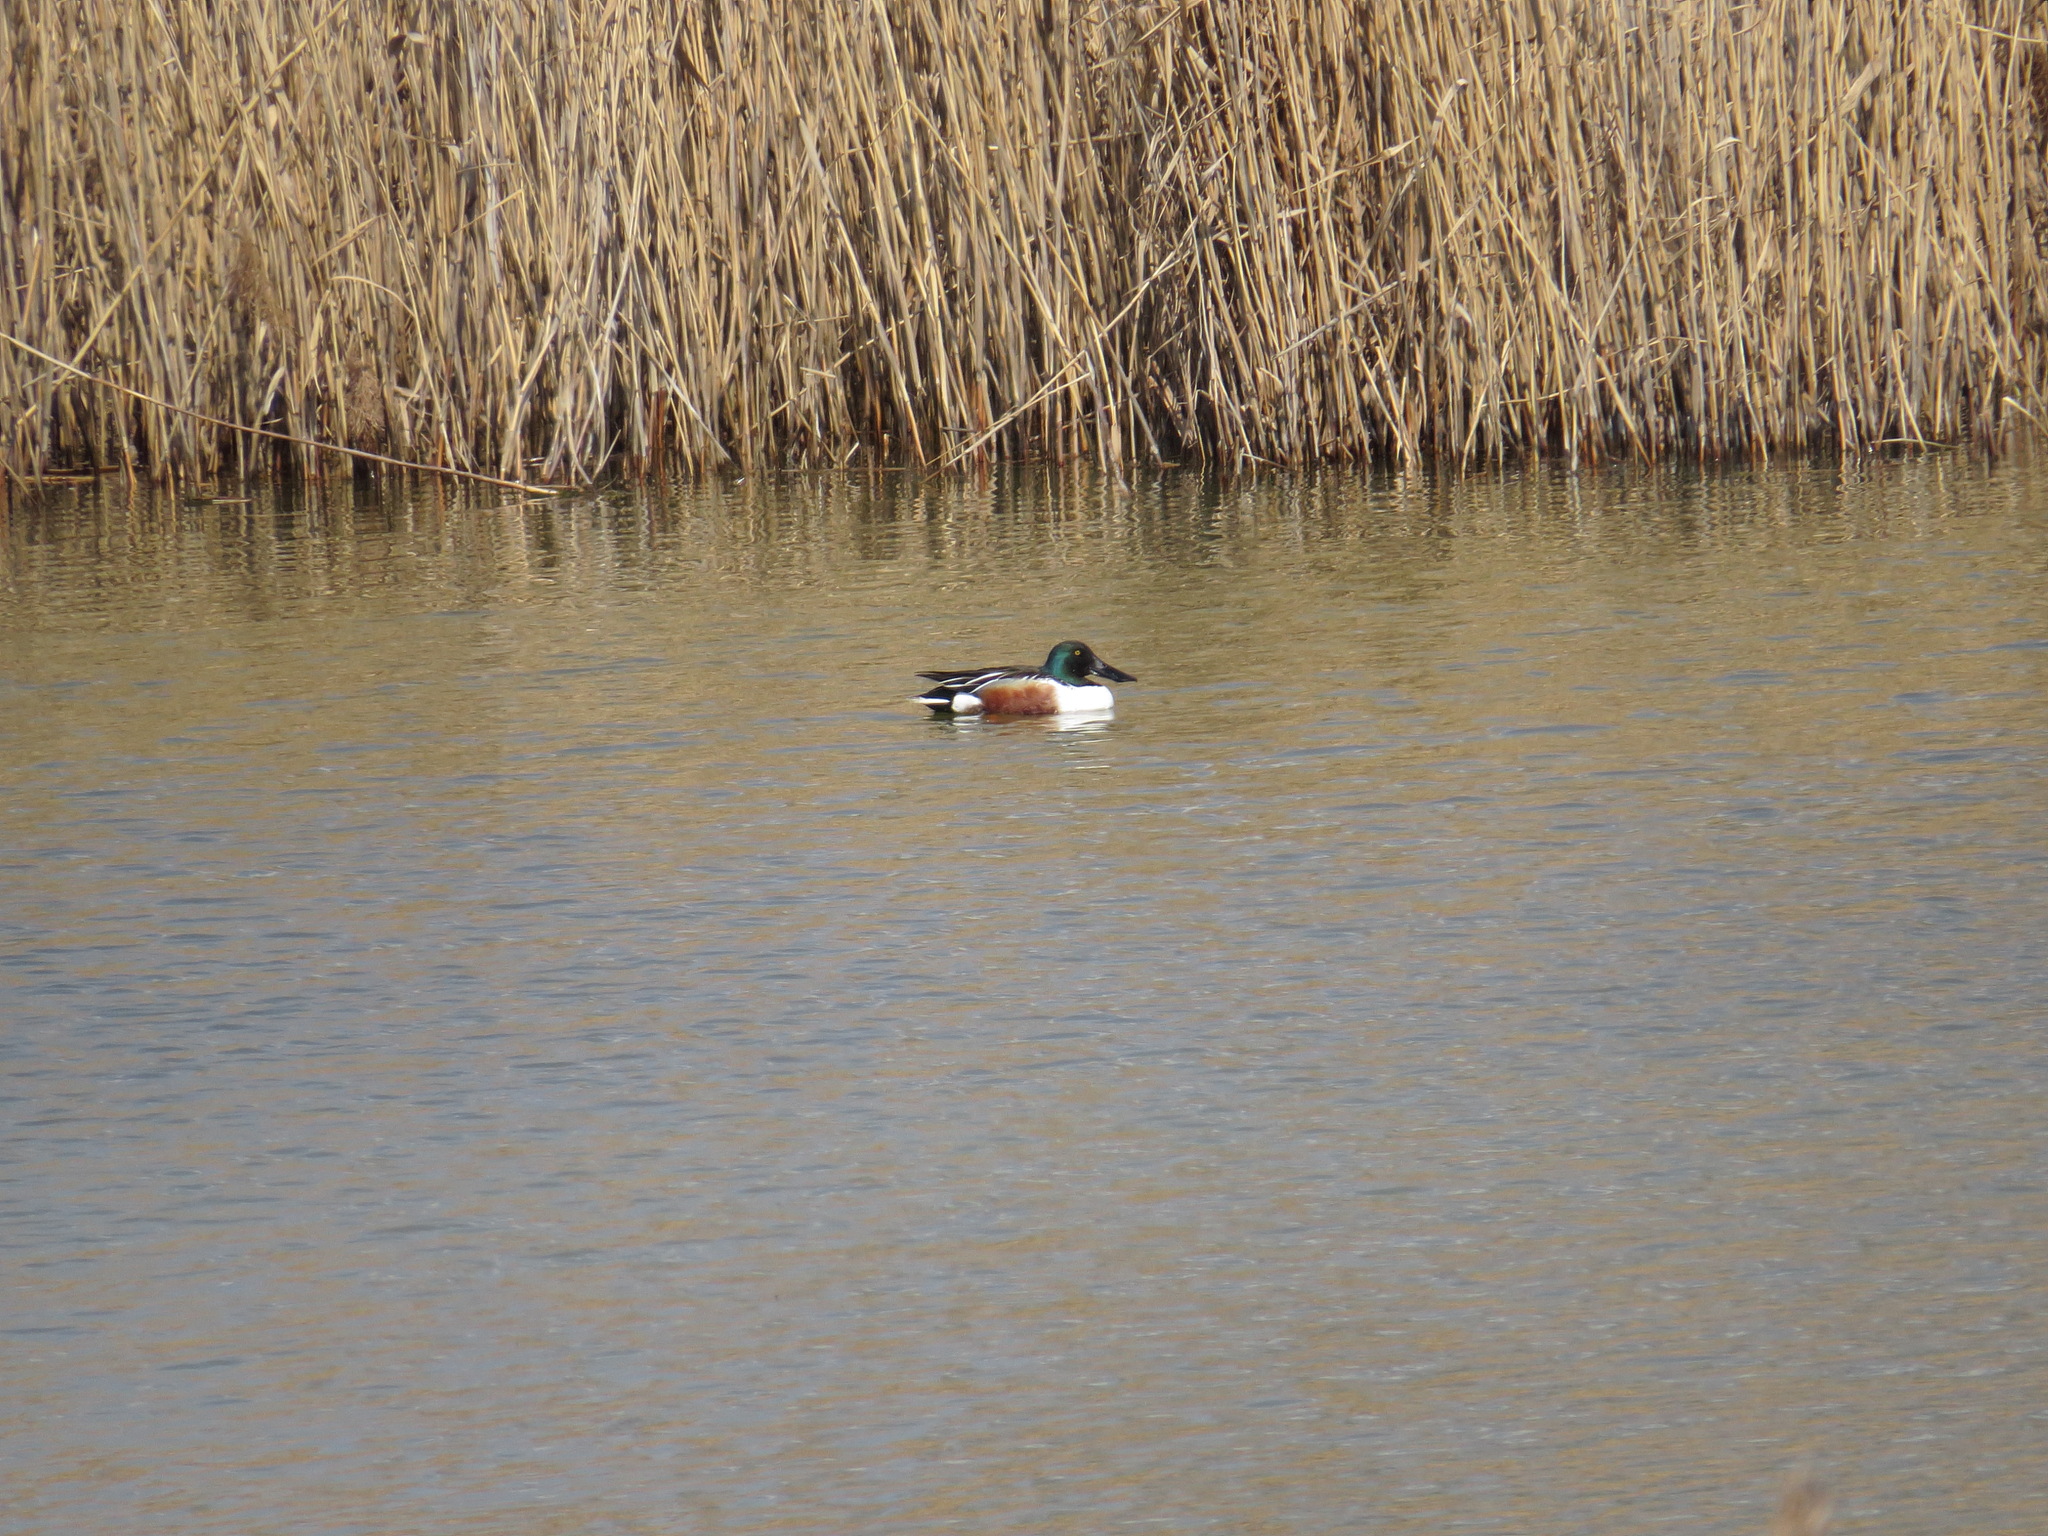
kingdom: Animalia
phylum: Chordata
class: Aves
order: Anseriformes
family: Anatidae
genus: Spatula
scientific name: Spatula clypeata
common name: Northern shoveler
